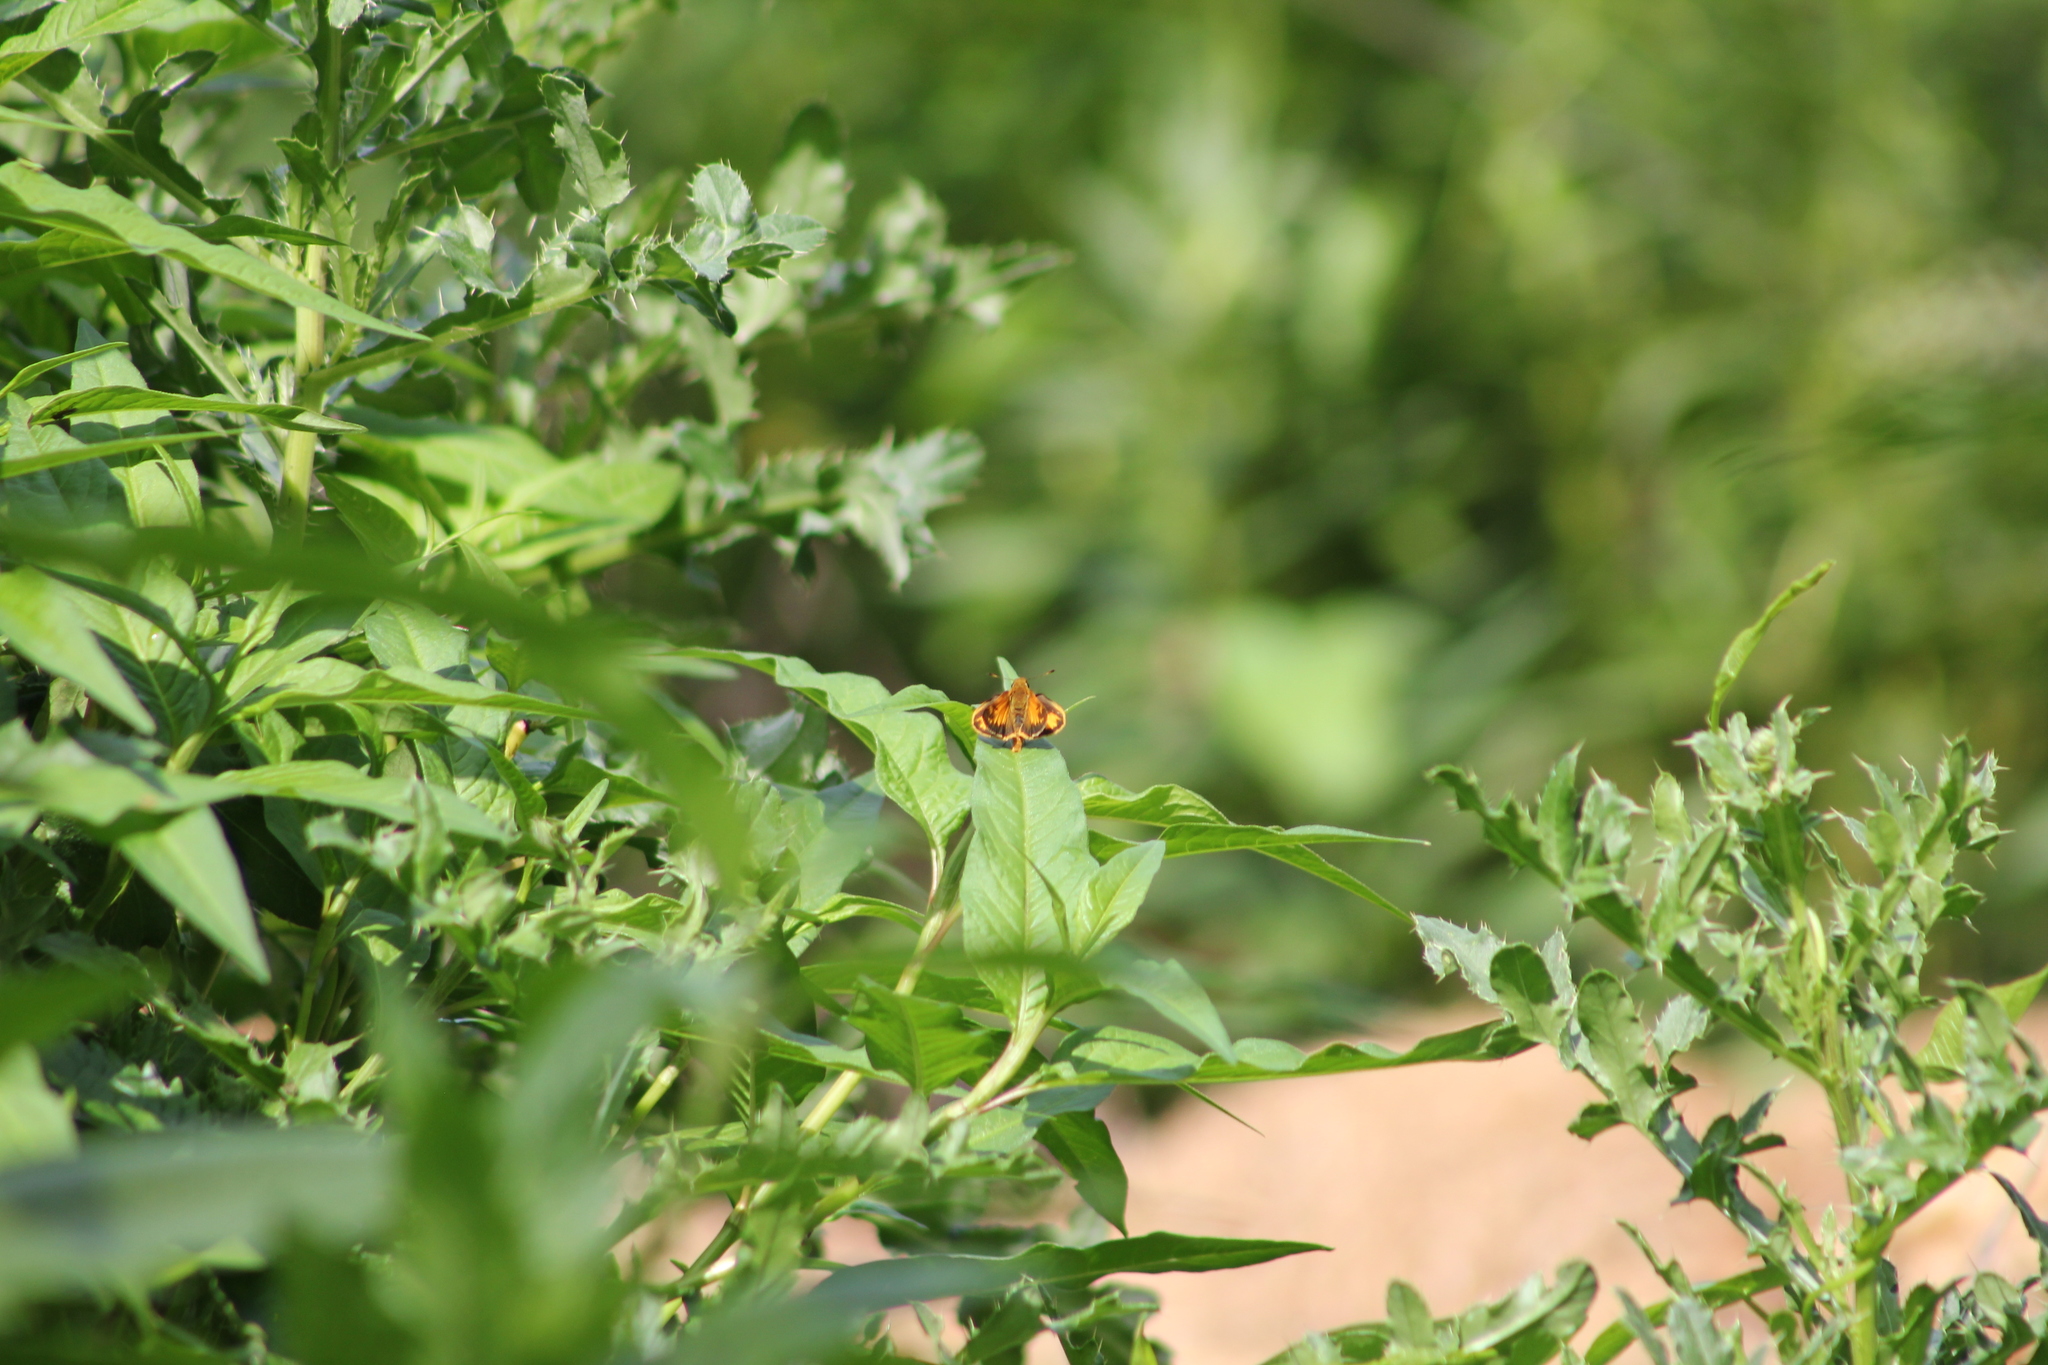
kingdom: Animalia
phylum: Arthropoda
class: Insecta
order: Lepidoptera
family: Hesperiidae
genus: Lon
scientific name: Lon zabulon
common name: Zabulon skipper
